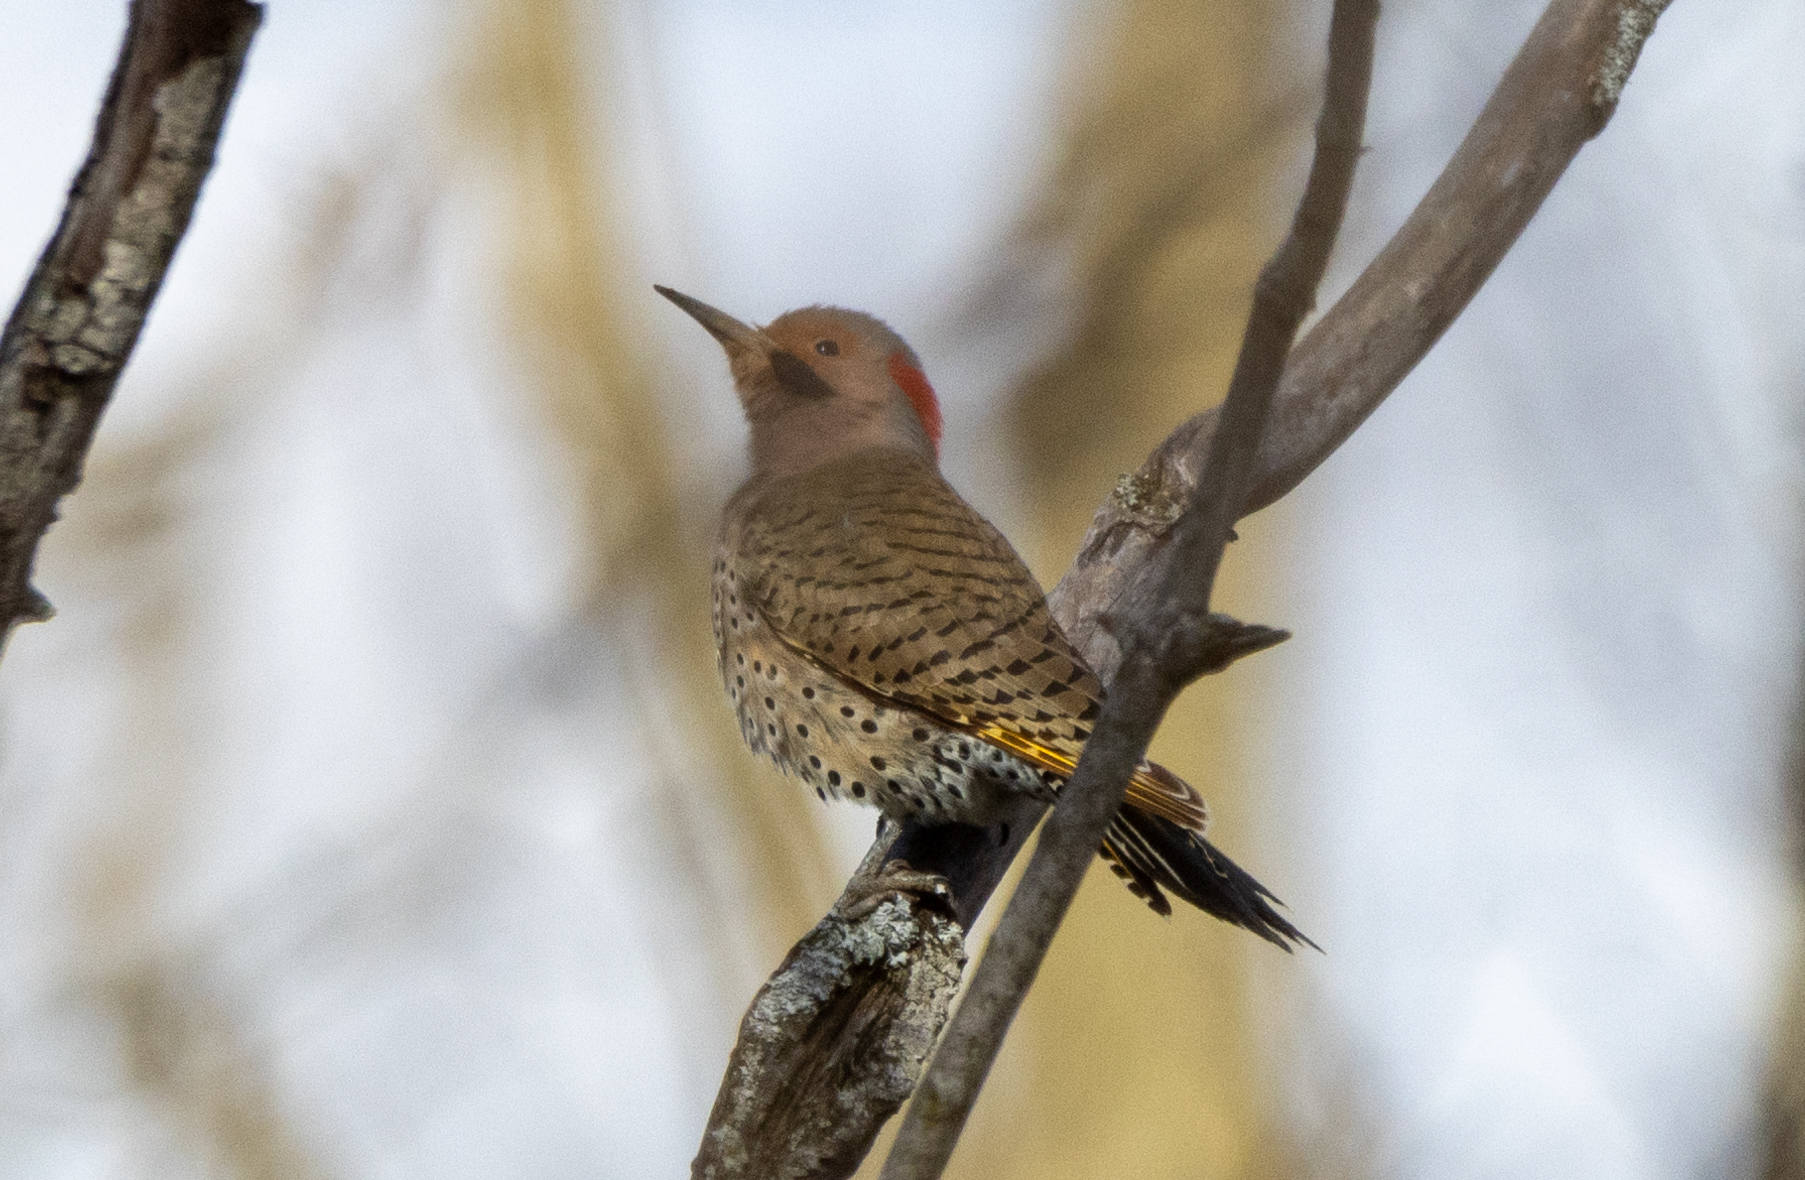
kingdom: Animalia
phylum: Chordata
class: Aves
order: Piciformes
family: Picidae
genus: Colaptes
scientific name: Colaptes auratus
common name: Northern flicker
